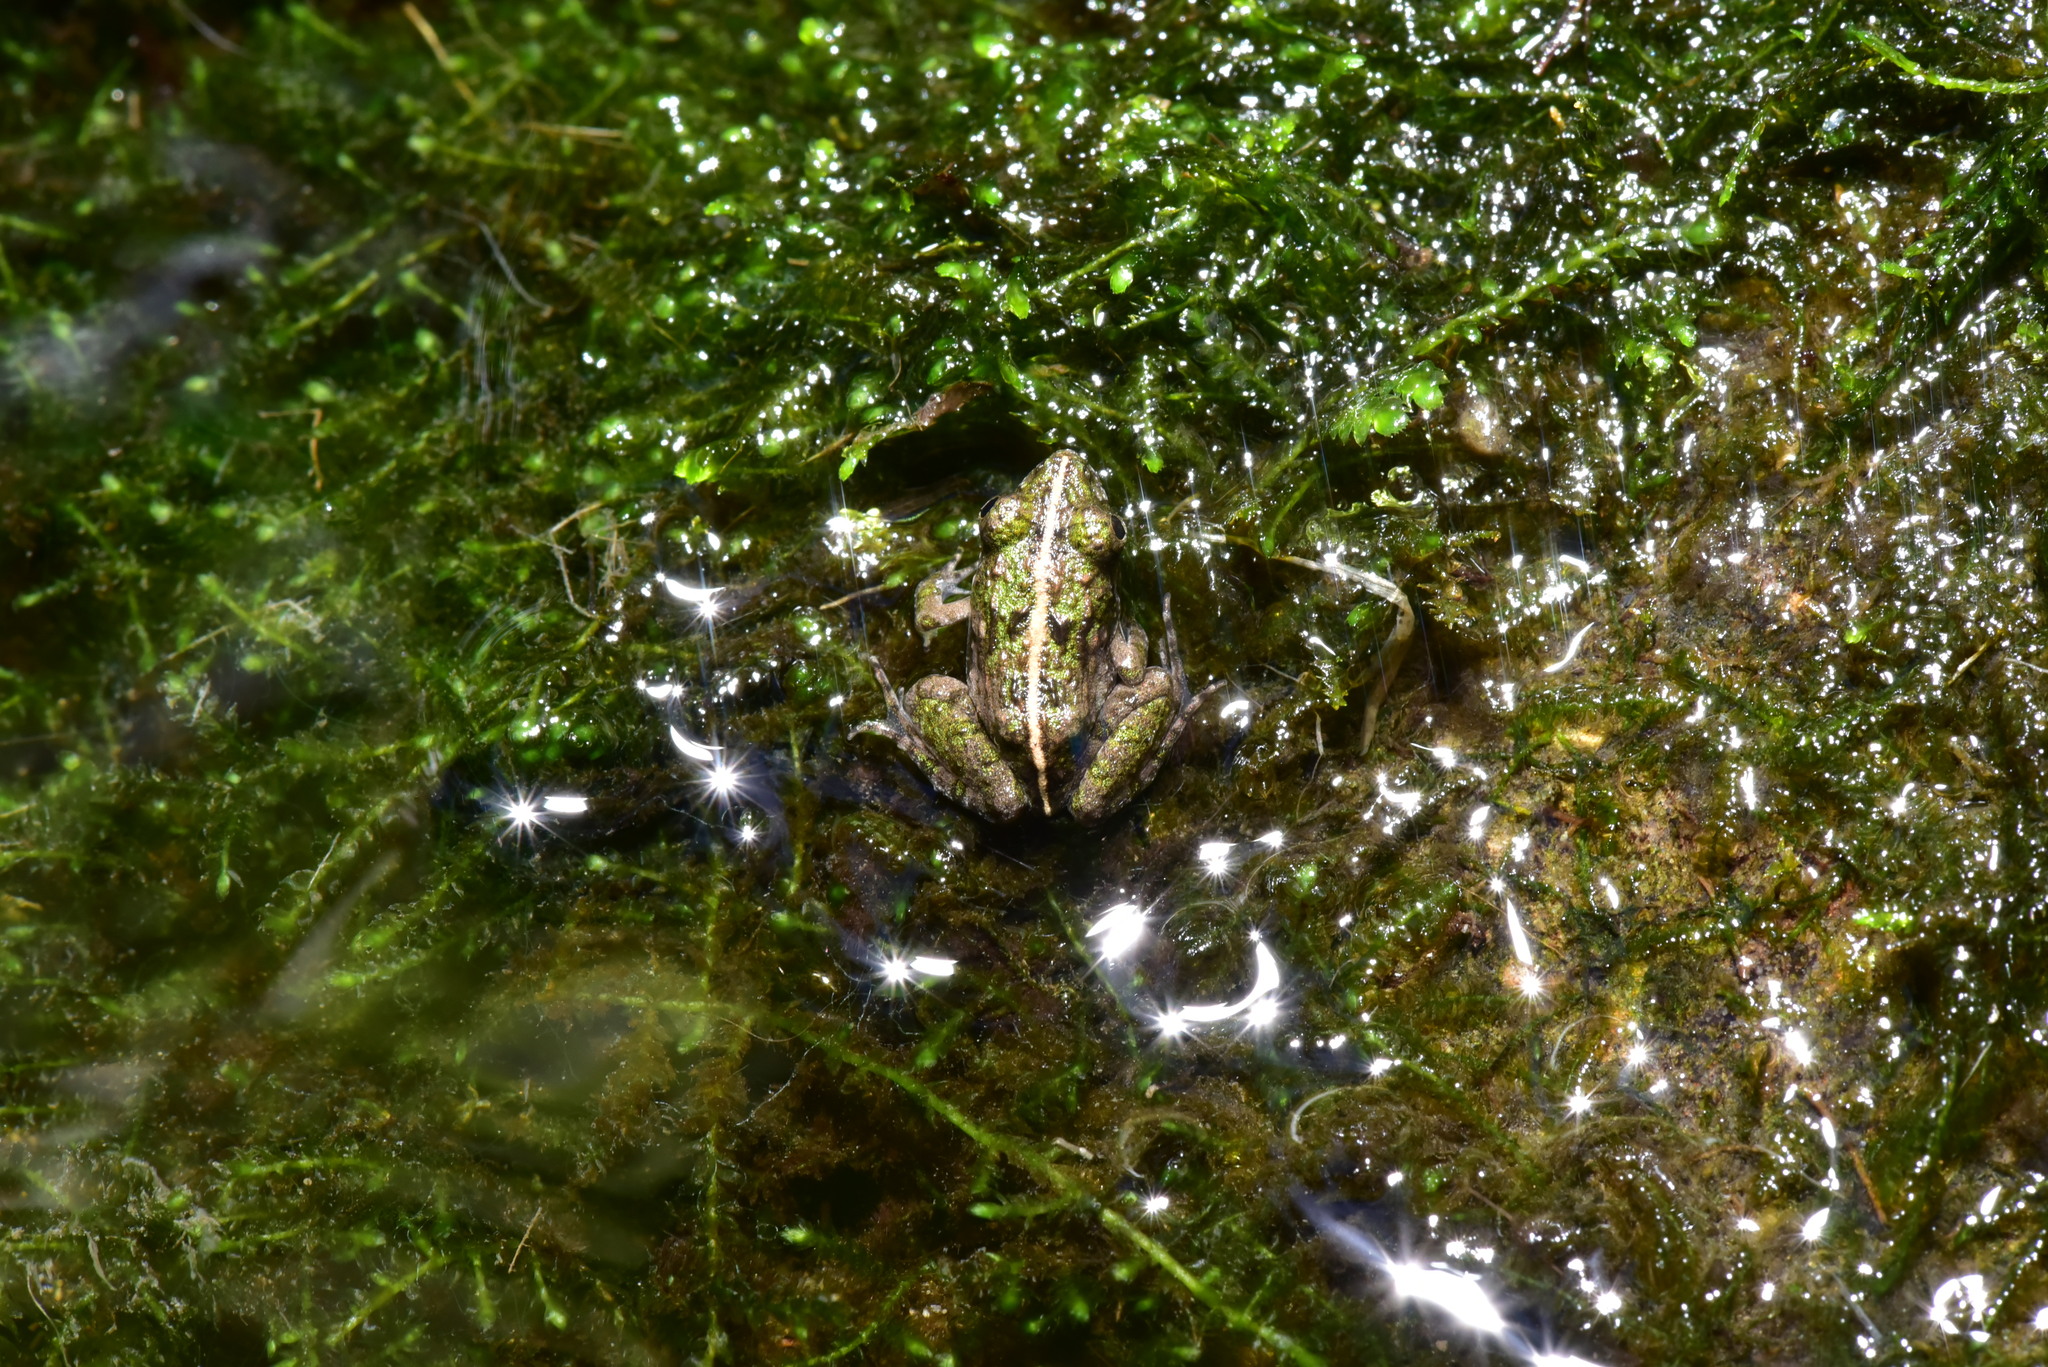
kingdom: Animalia
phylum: Chordata
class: Amphibia
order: Anura
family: Dicroglossidae
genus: Fejervarya
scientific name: Fejervarya limnocharis
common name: Asian grass frog/common pond frog/field frog/grass frog/indian rice frog
